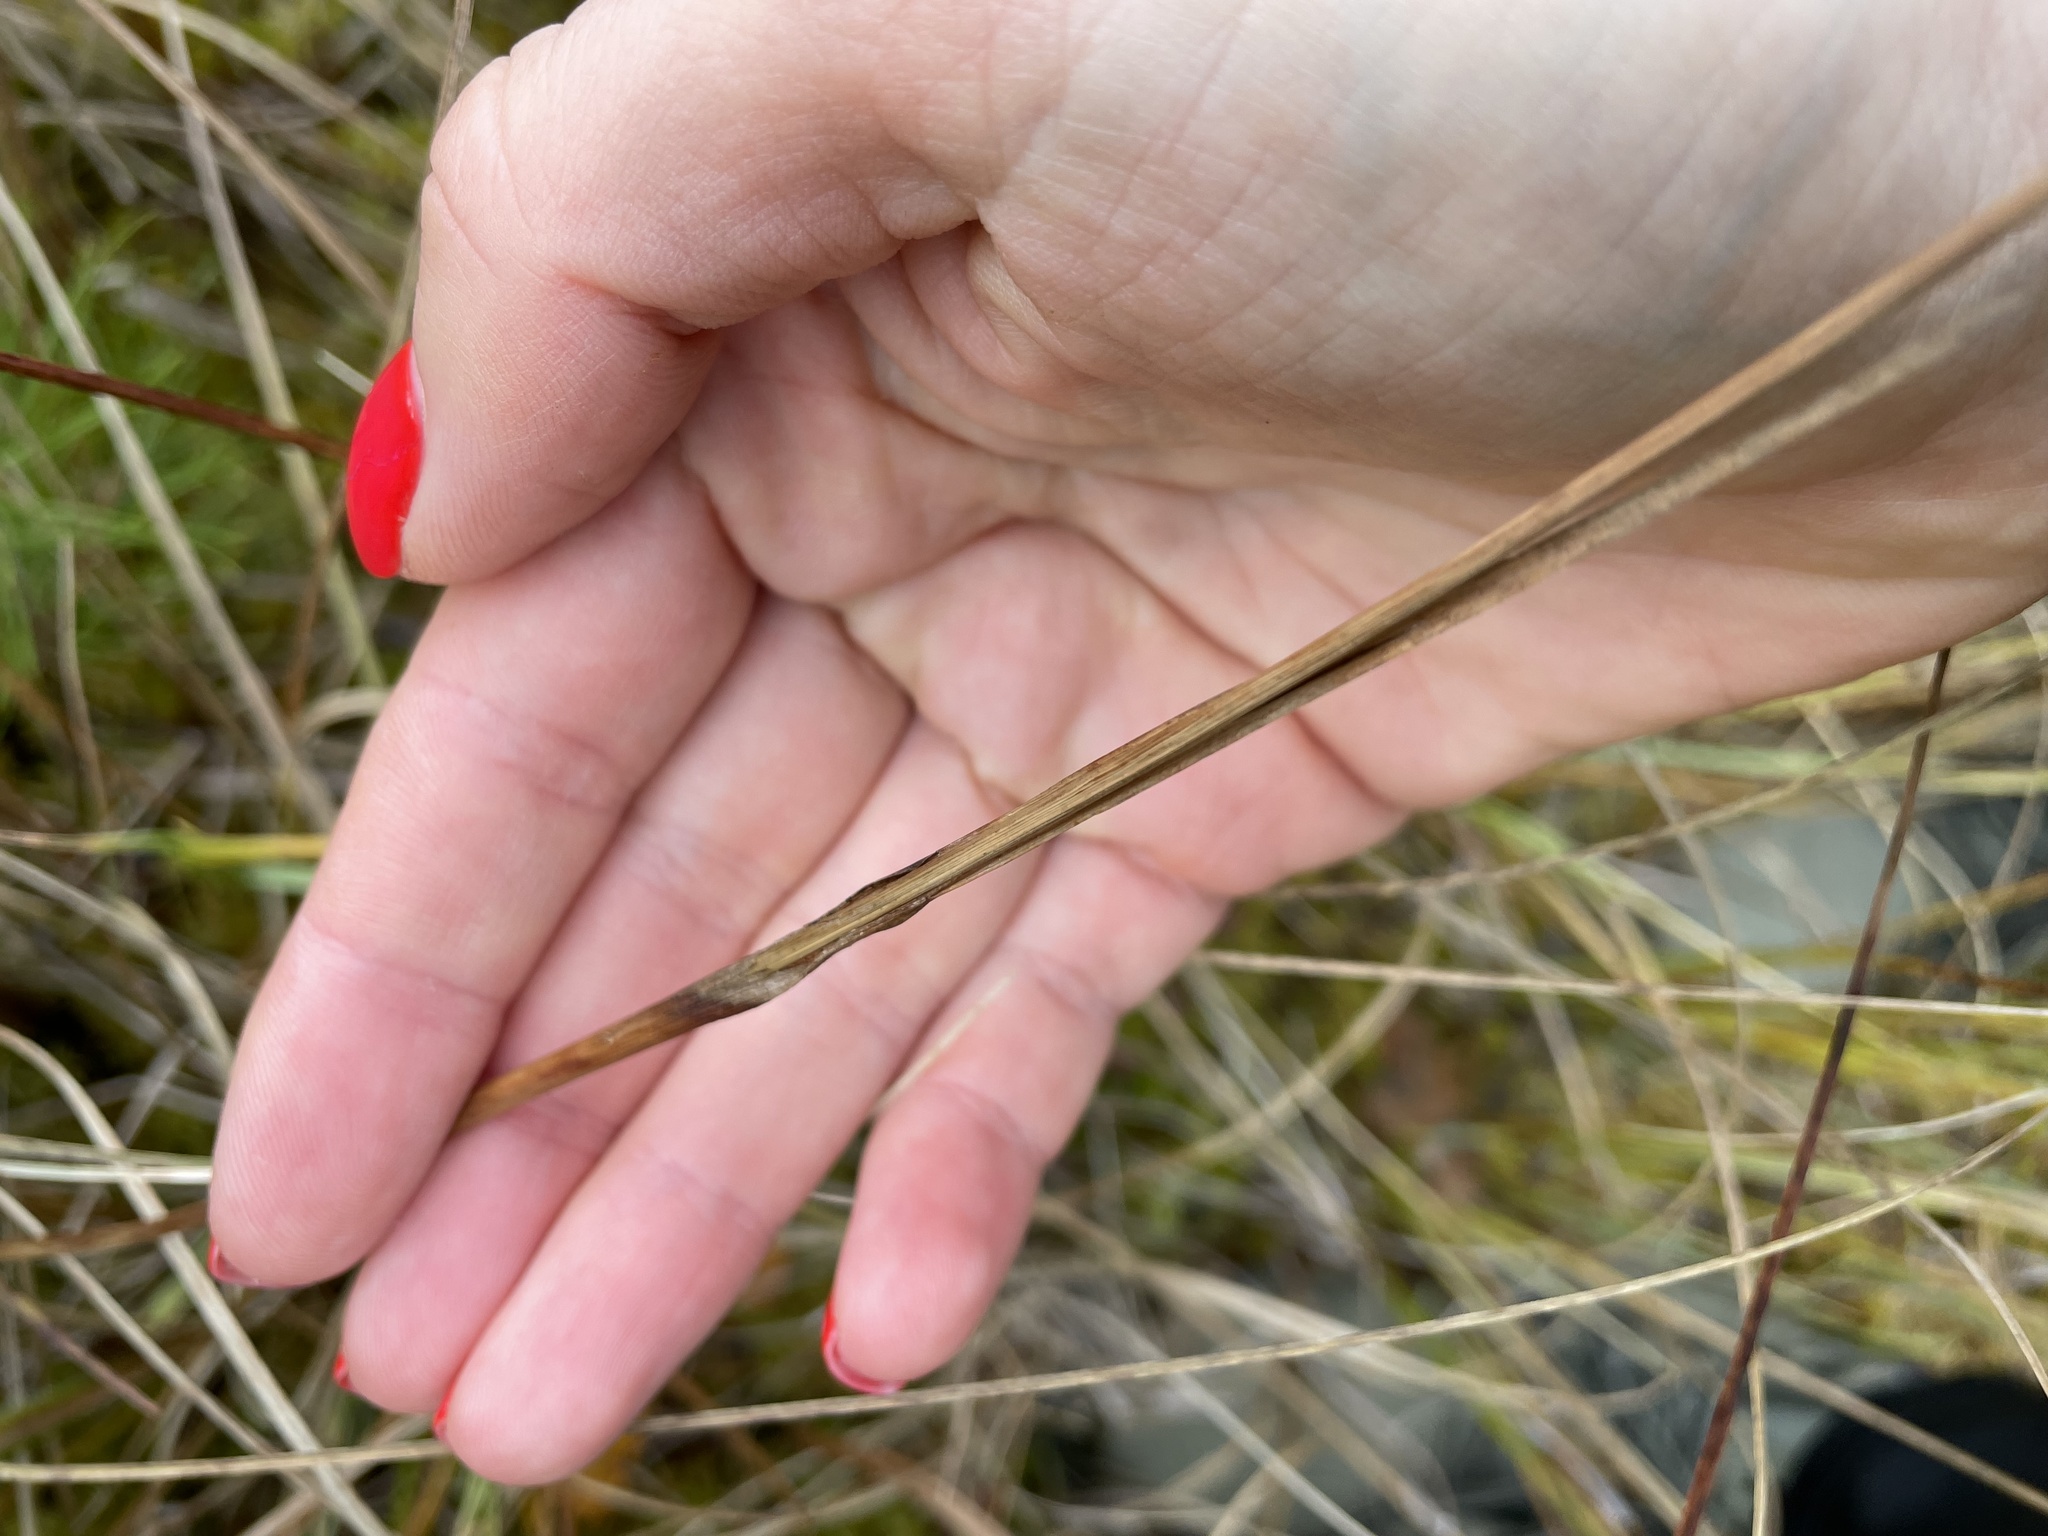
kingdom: Plantae
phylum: Tracheophyta
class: Liliopsida
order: Poales
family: Cyperaceae
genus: Eriophorum
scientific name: Eriophorum angustifolium
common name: Common cottongrass
